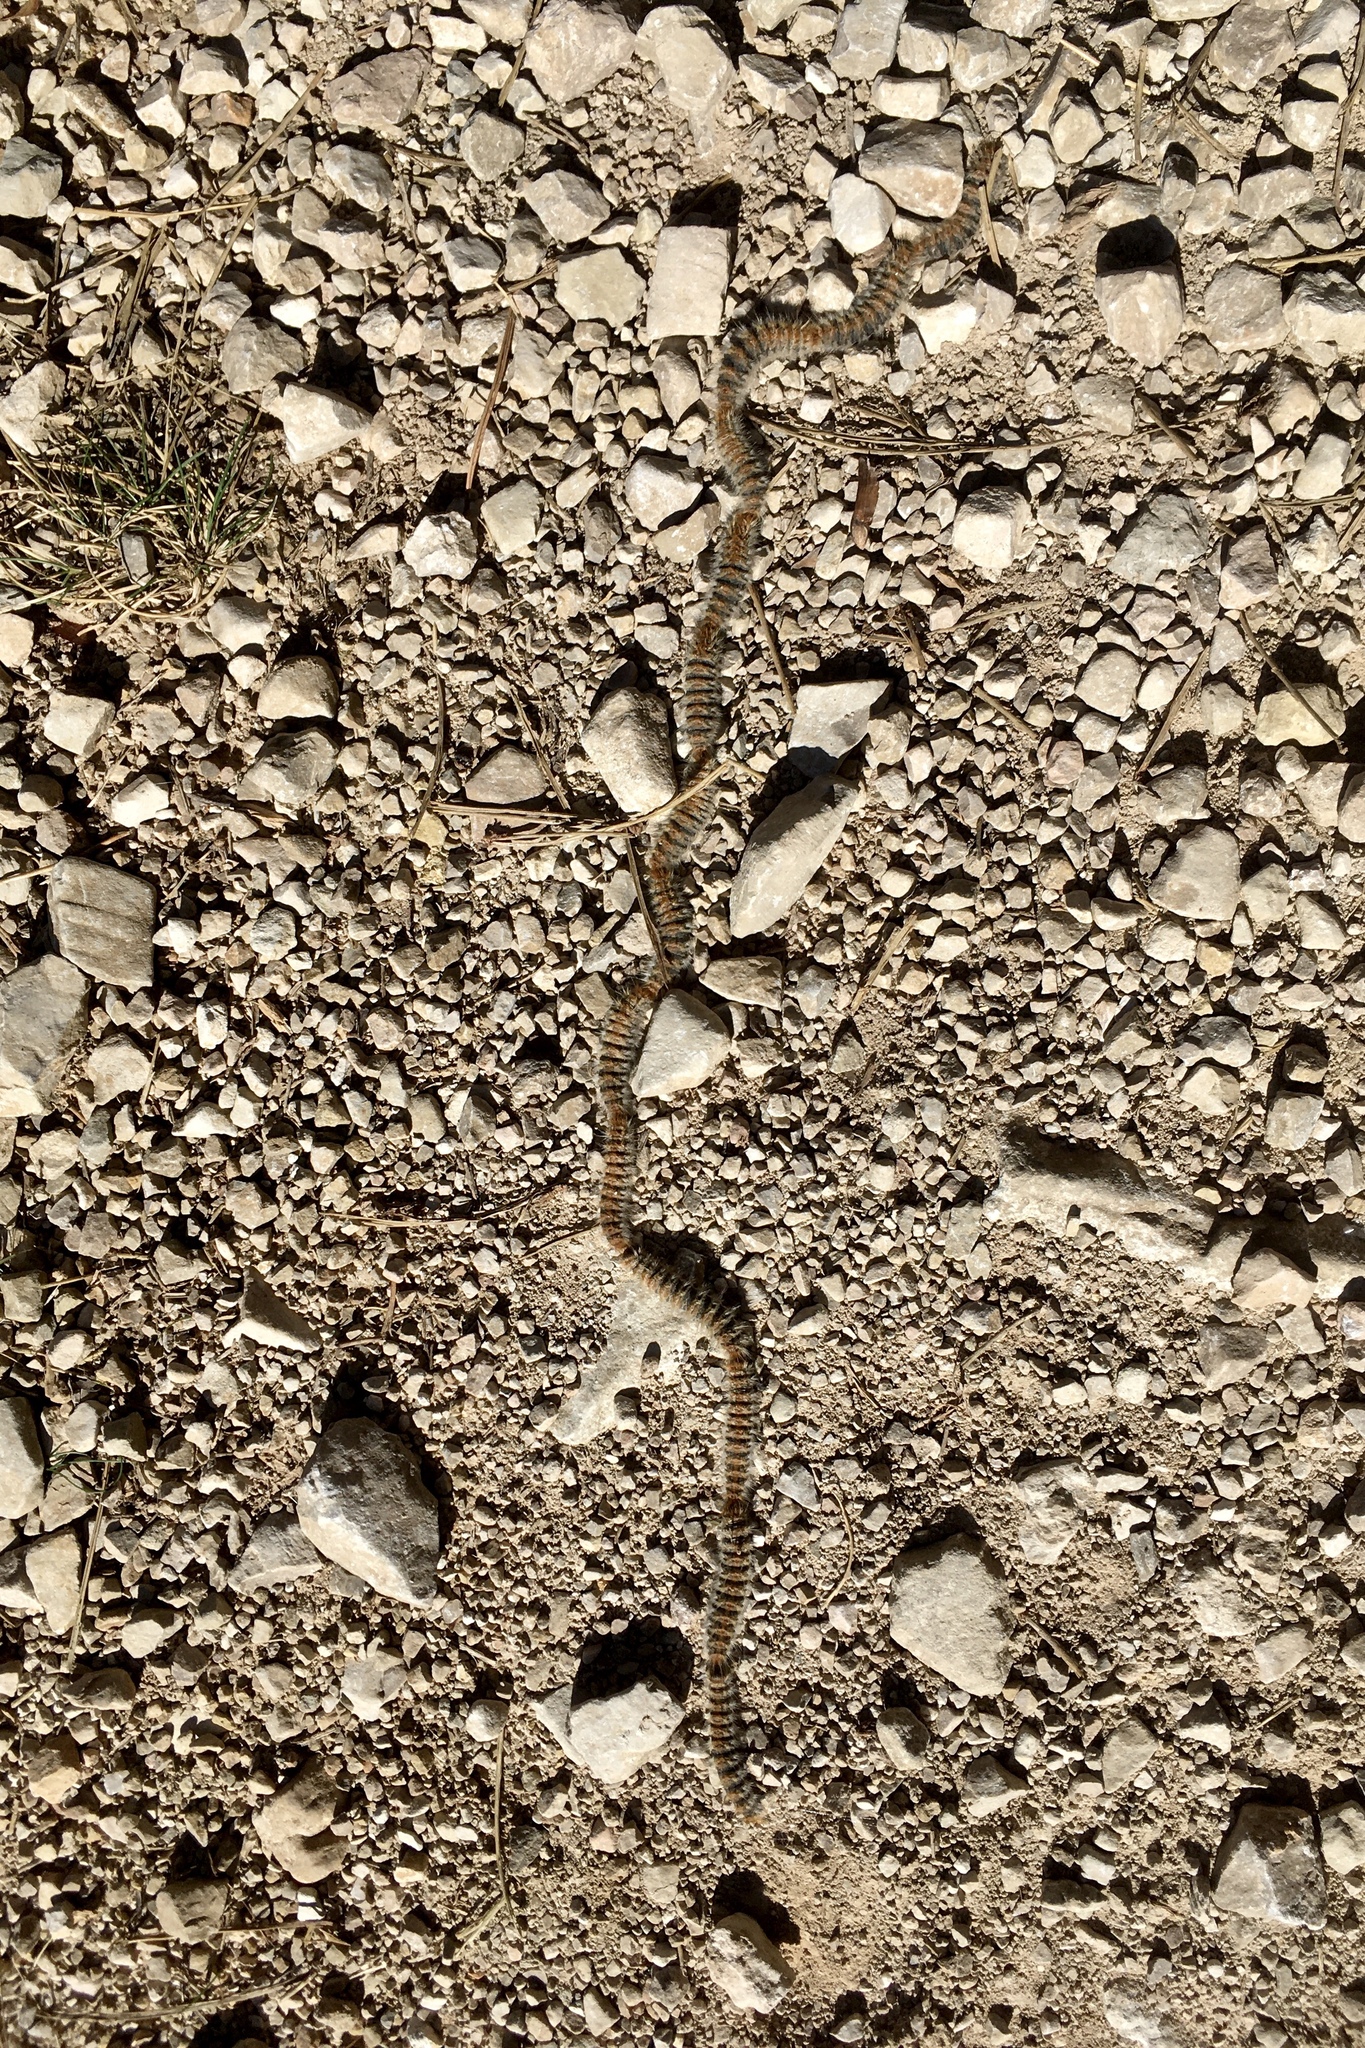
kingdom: Animalia
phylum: Arthropoda
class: Insecta
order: Lepidoptera
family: Notodontidae
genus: Thaumetopoea
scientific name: Thaumetopoea pityocampa
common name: Pine processionary
